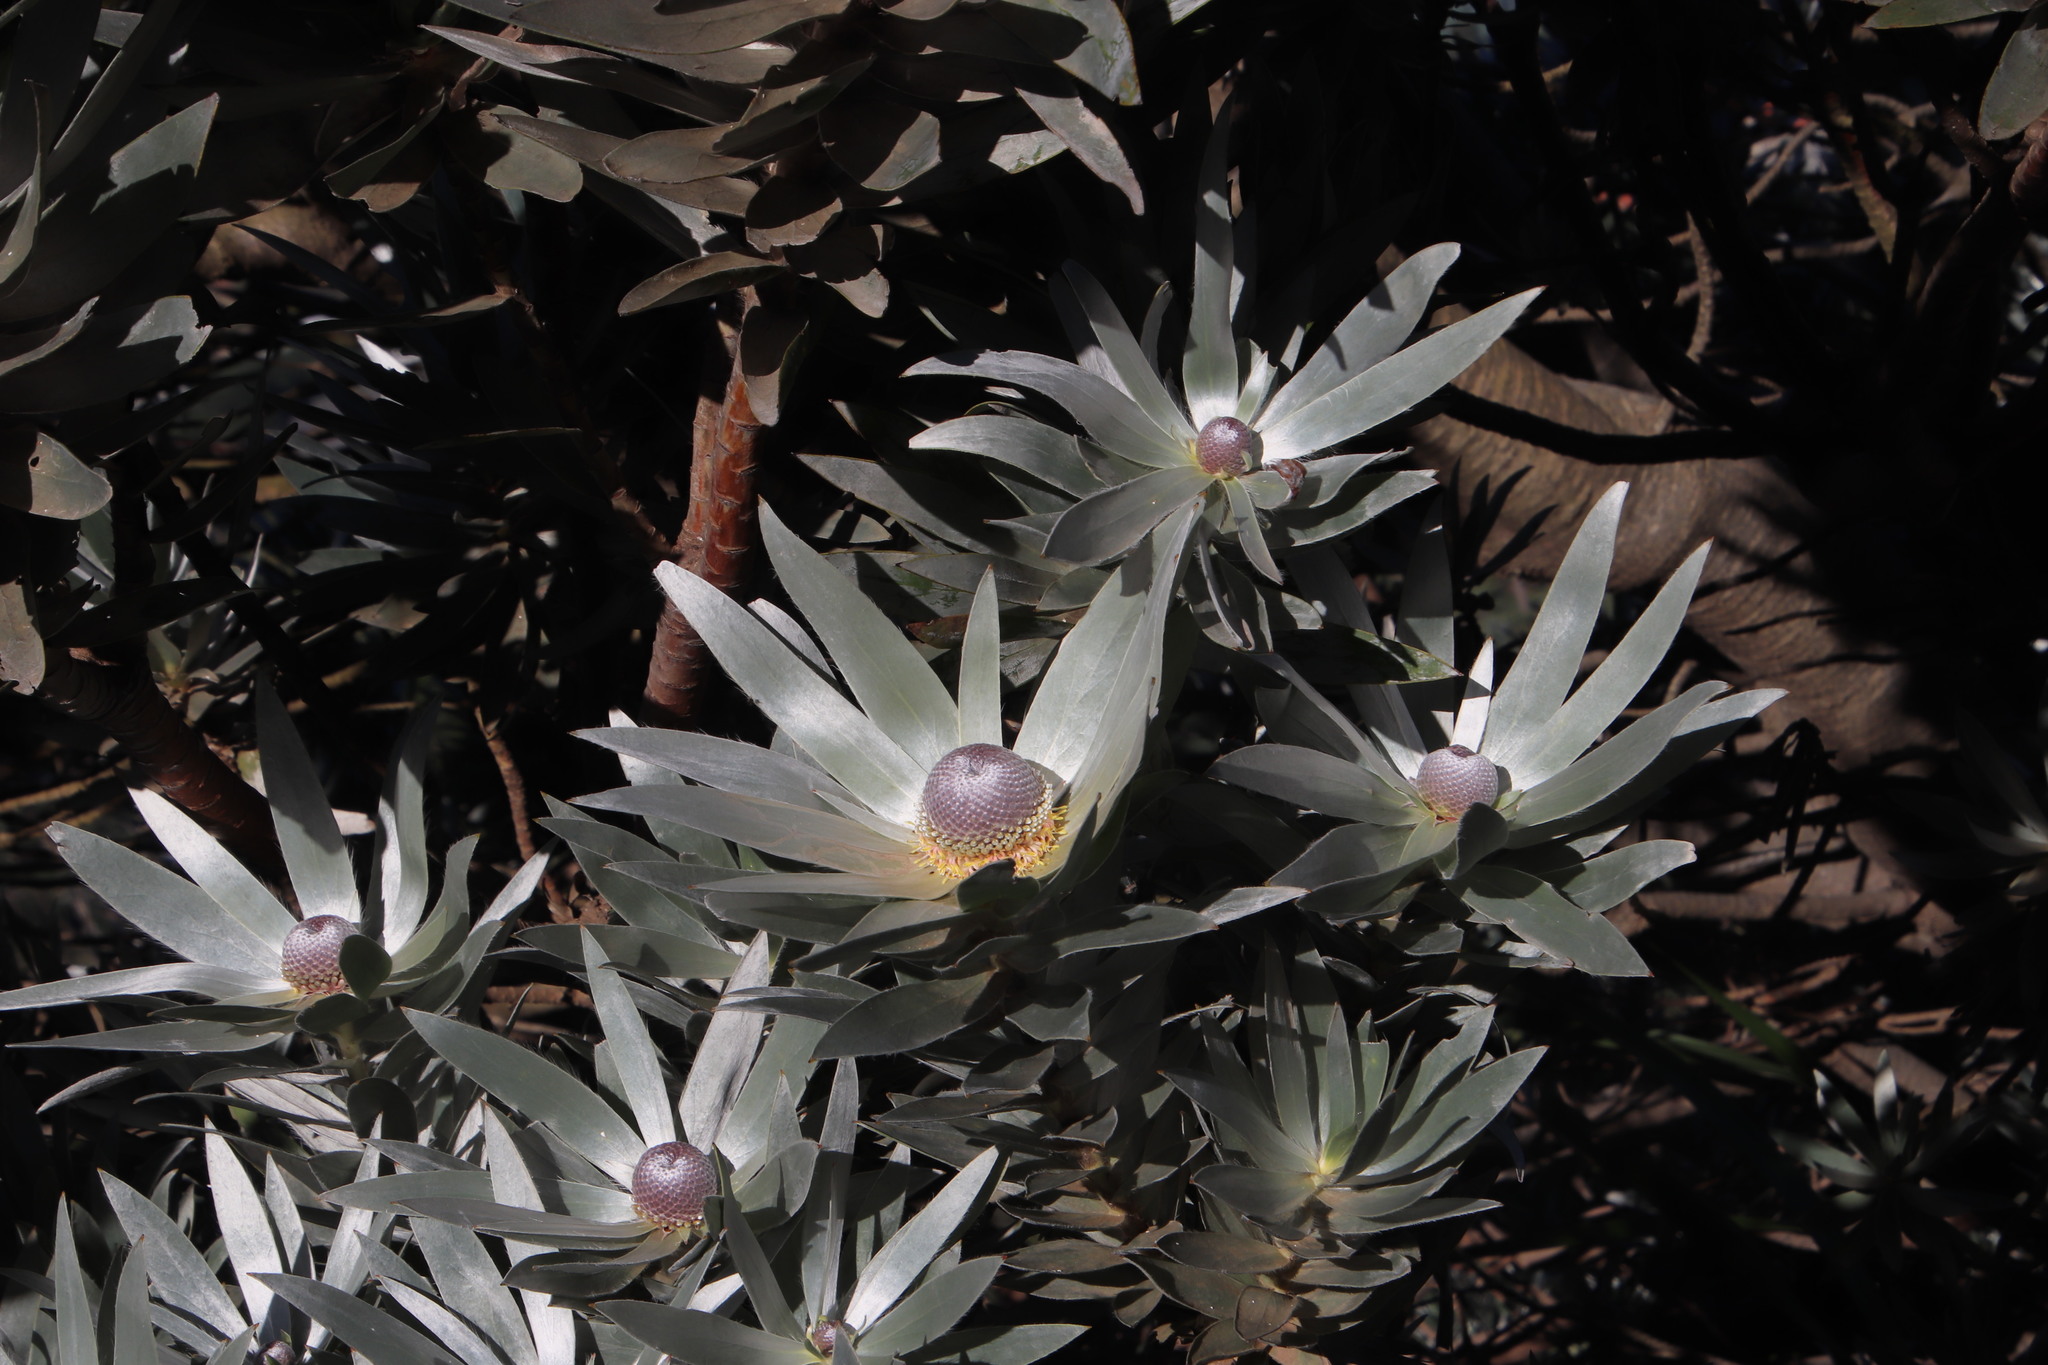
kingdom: Plantae
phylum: Tracheophyta
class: Magnoliopsida
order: Proteales
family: Proteaceae
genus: Leucadendron
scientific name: Leucadendron argenteum
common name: Cape silver tree
